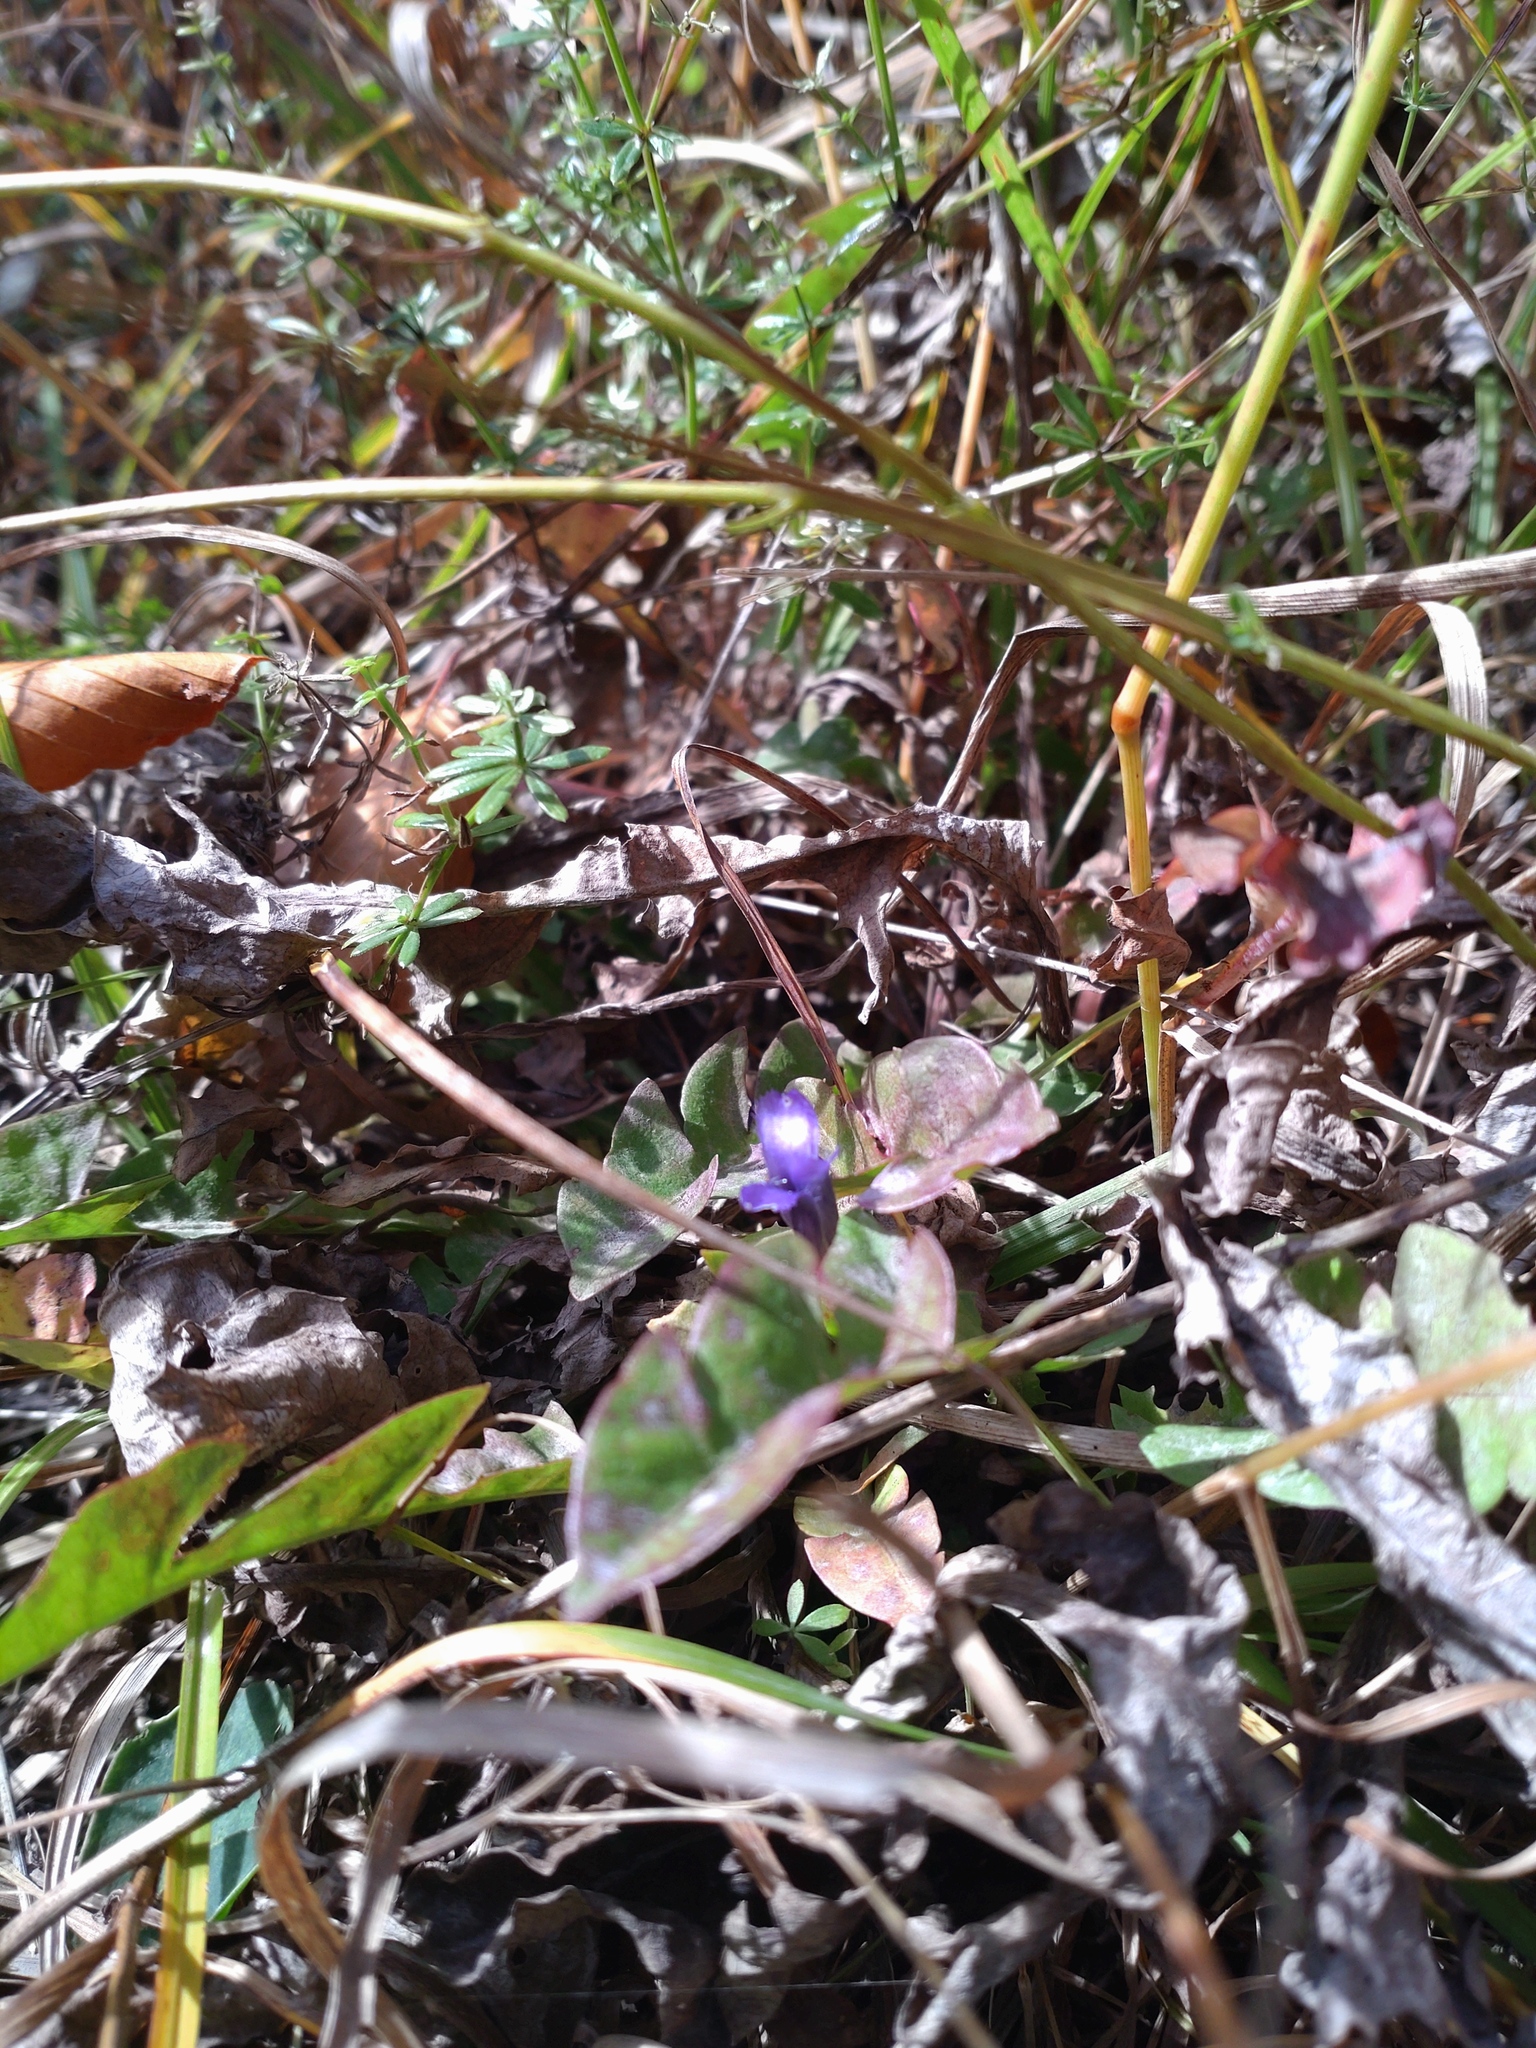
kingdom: Plantae
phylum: Tracheophyta
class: Magnoliopsida
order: Gentianales
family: Gentianaceae
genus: Gentianopsis
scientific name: Gentianopsis ciliata
